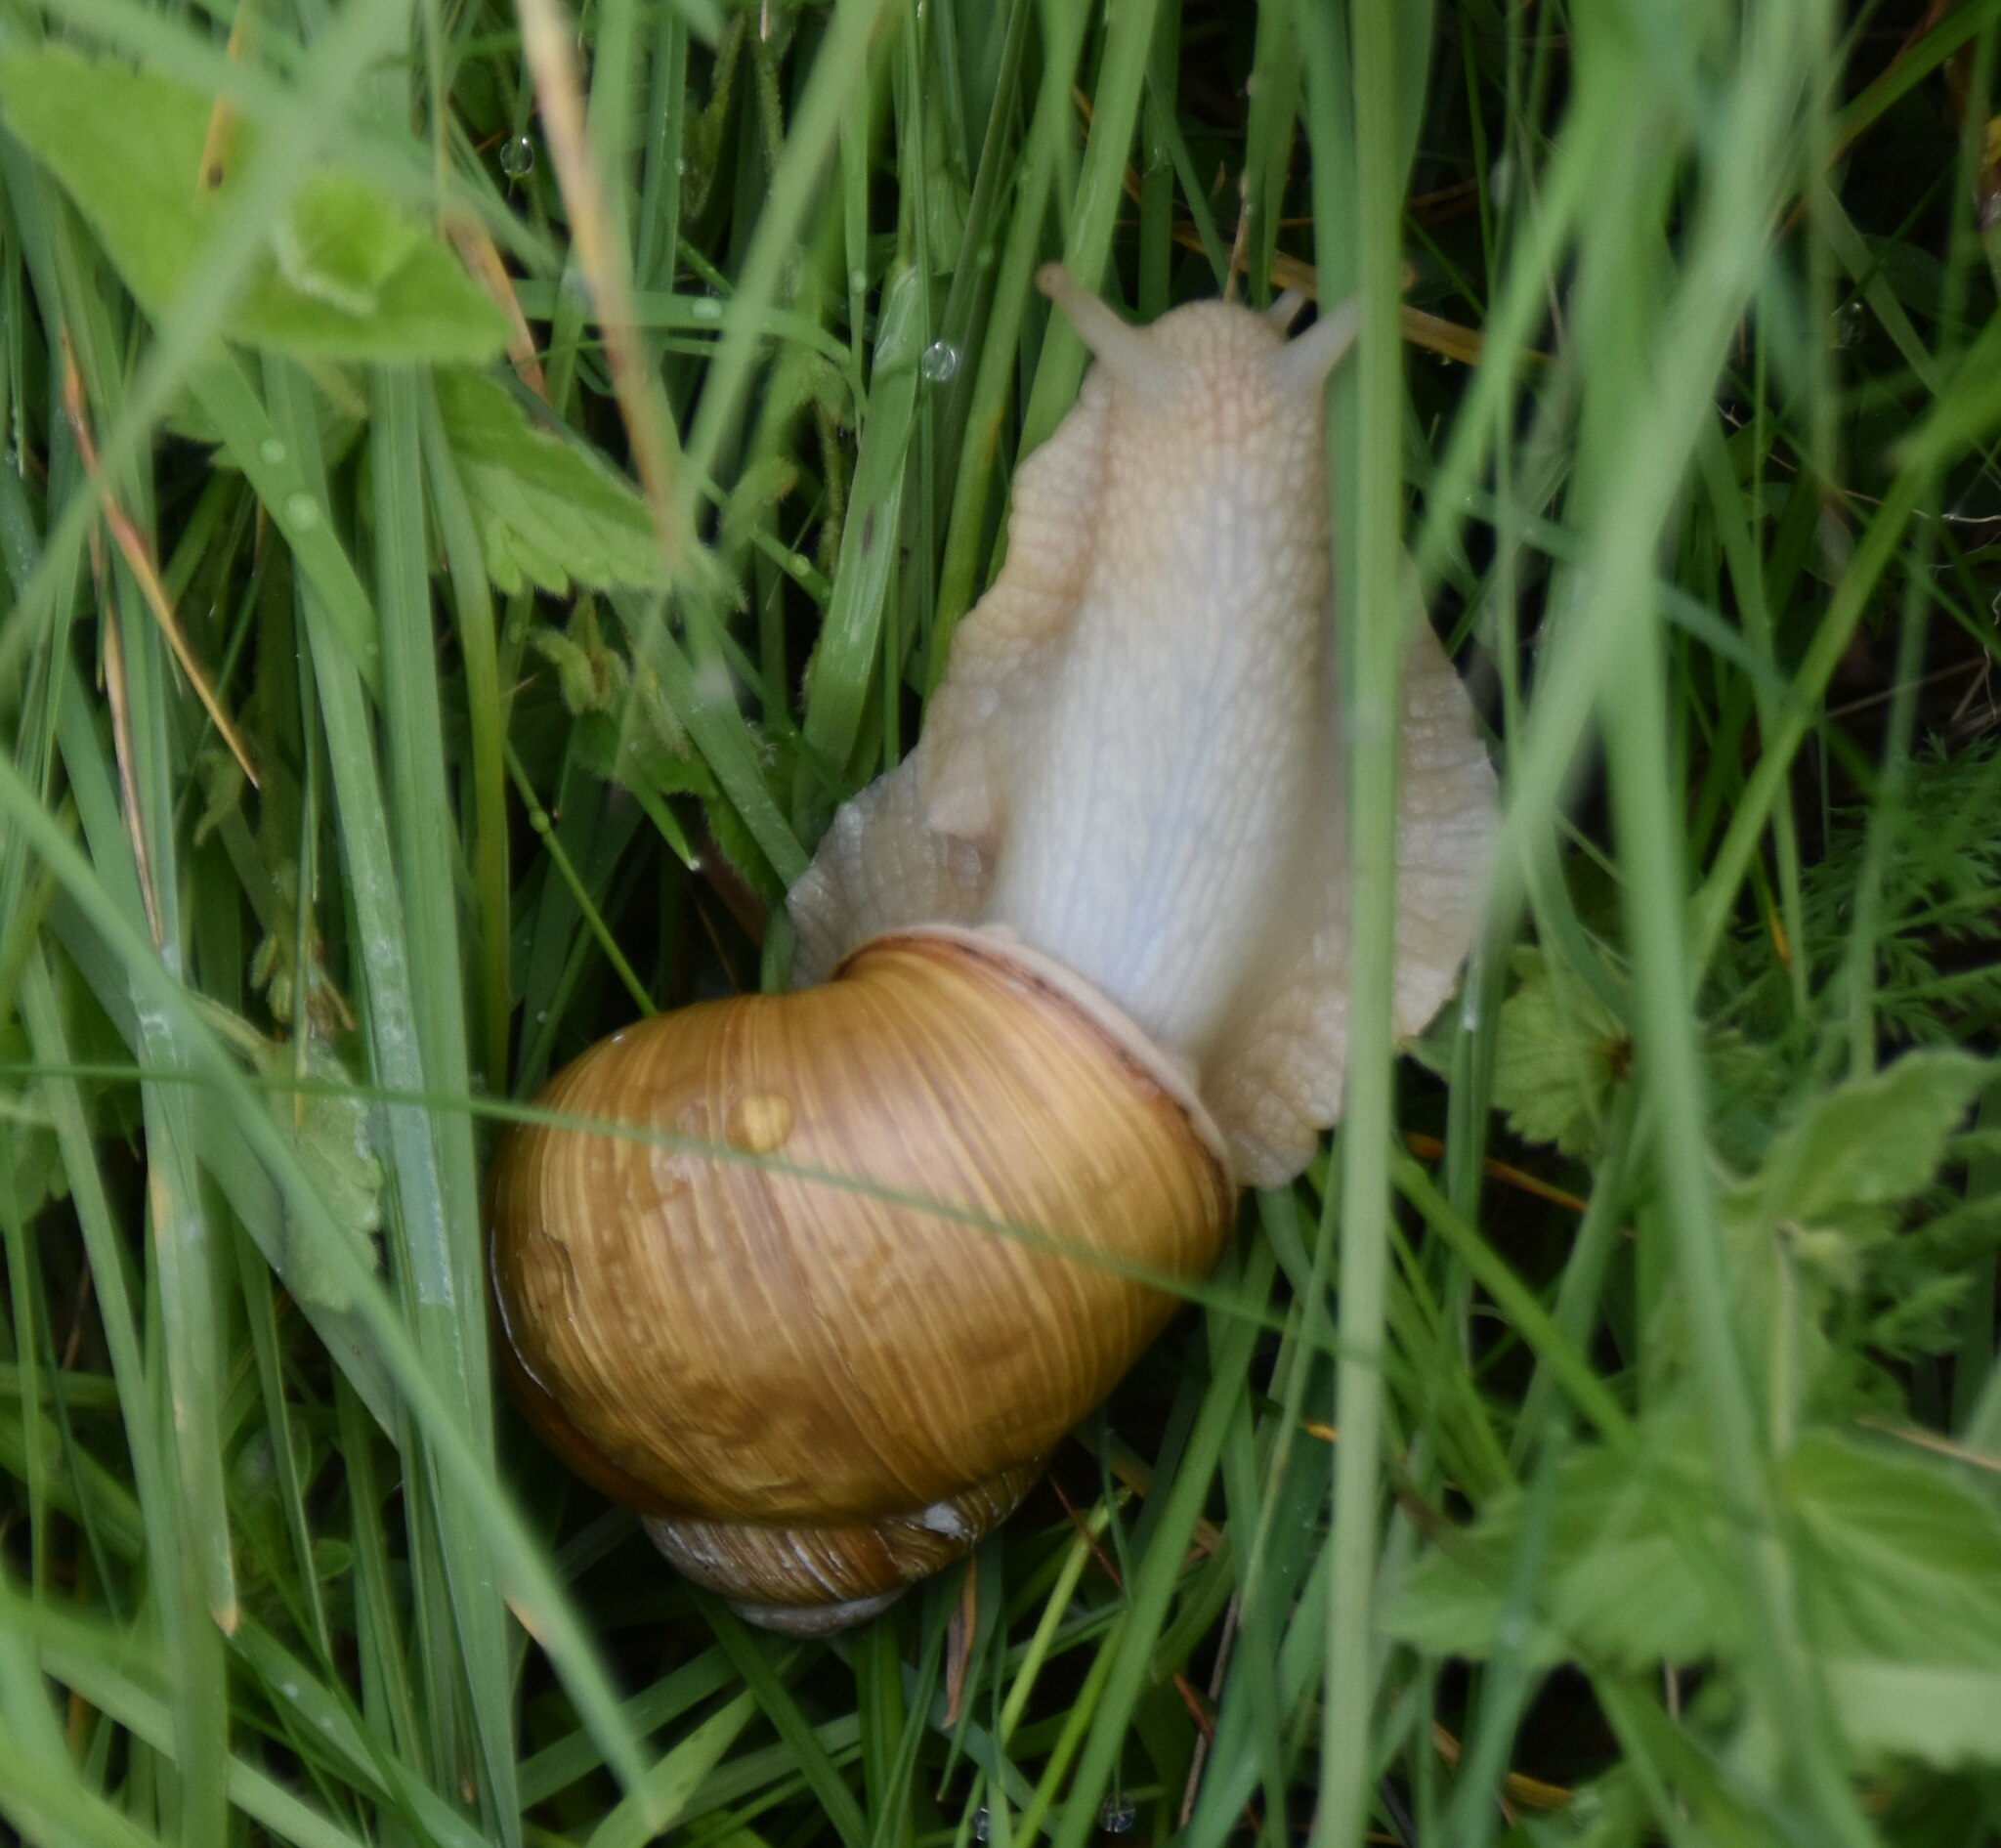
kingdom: Animalia
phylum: Mollusca
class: Gastropoda
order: Stylommatophora
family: Helicidae
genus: Helix
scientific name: Helix thessalica
